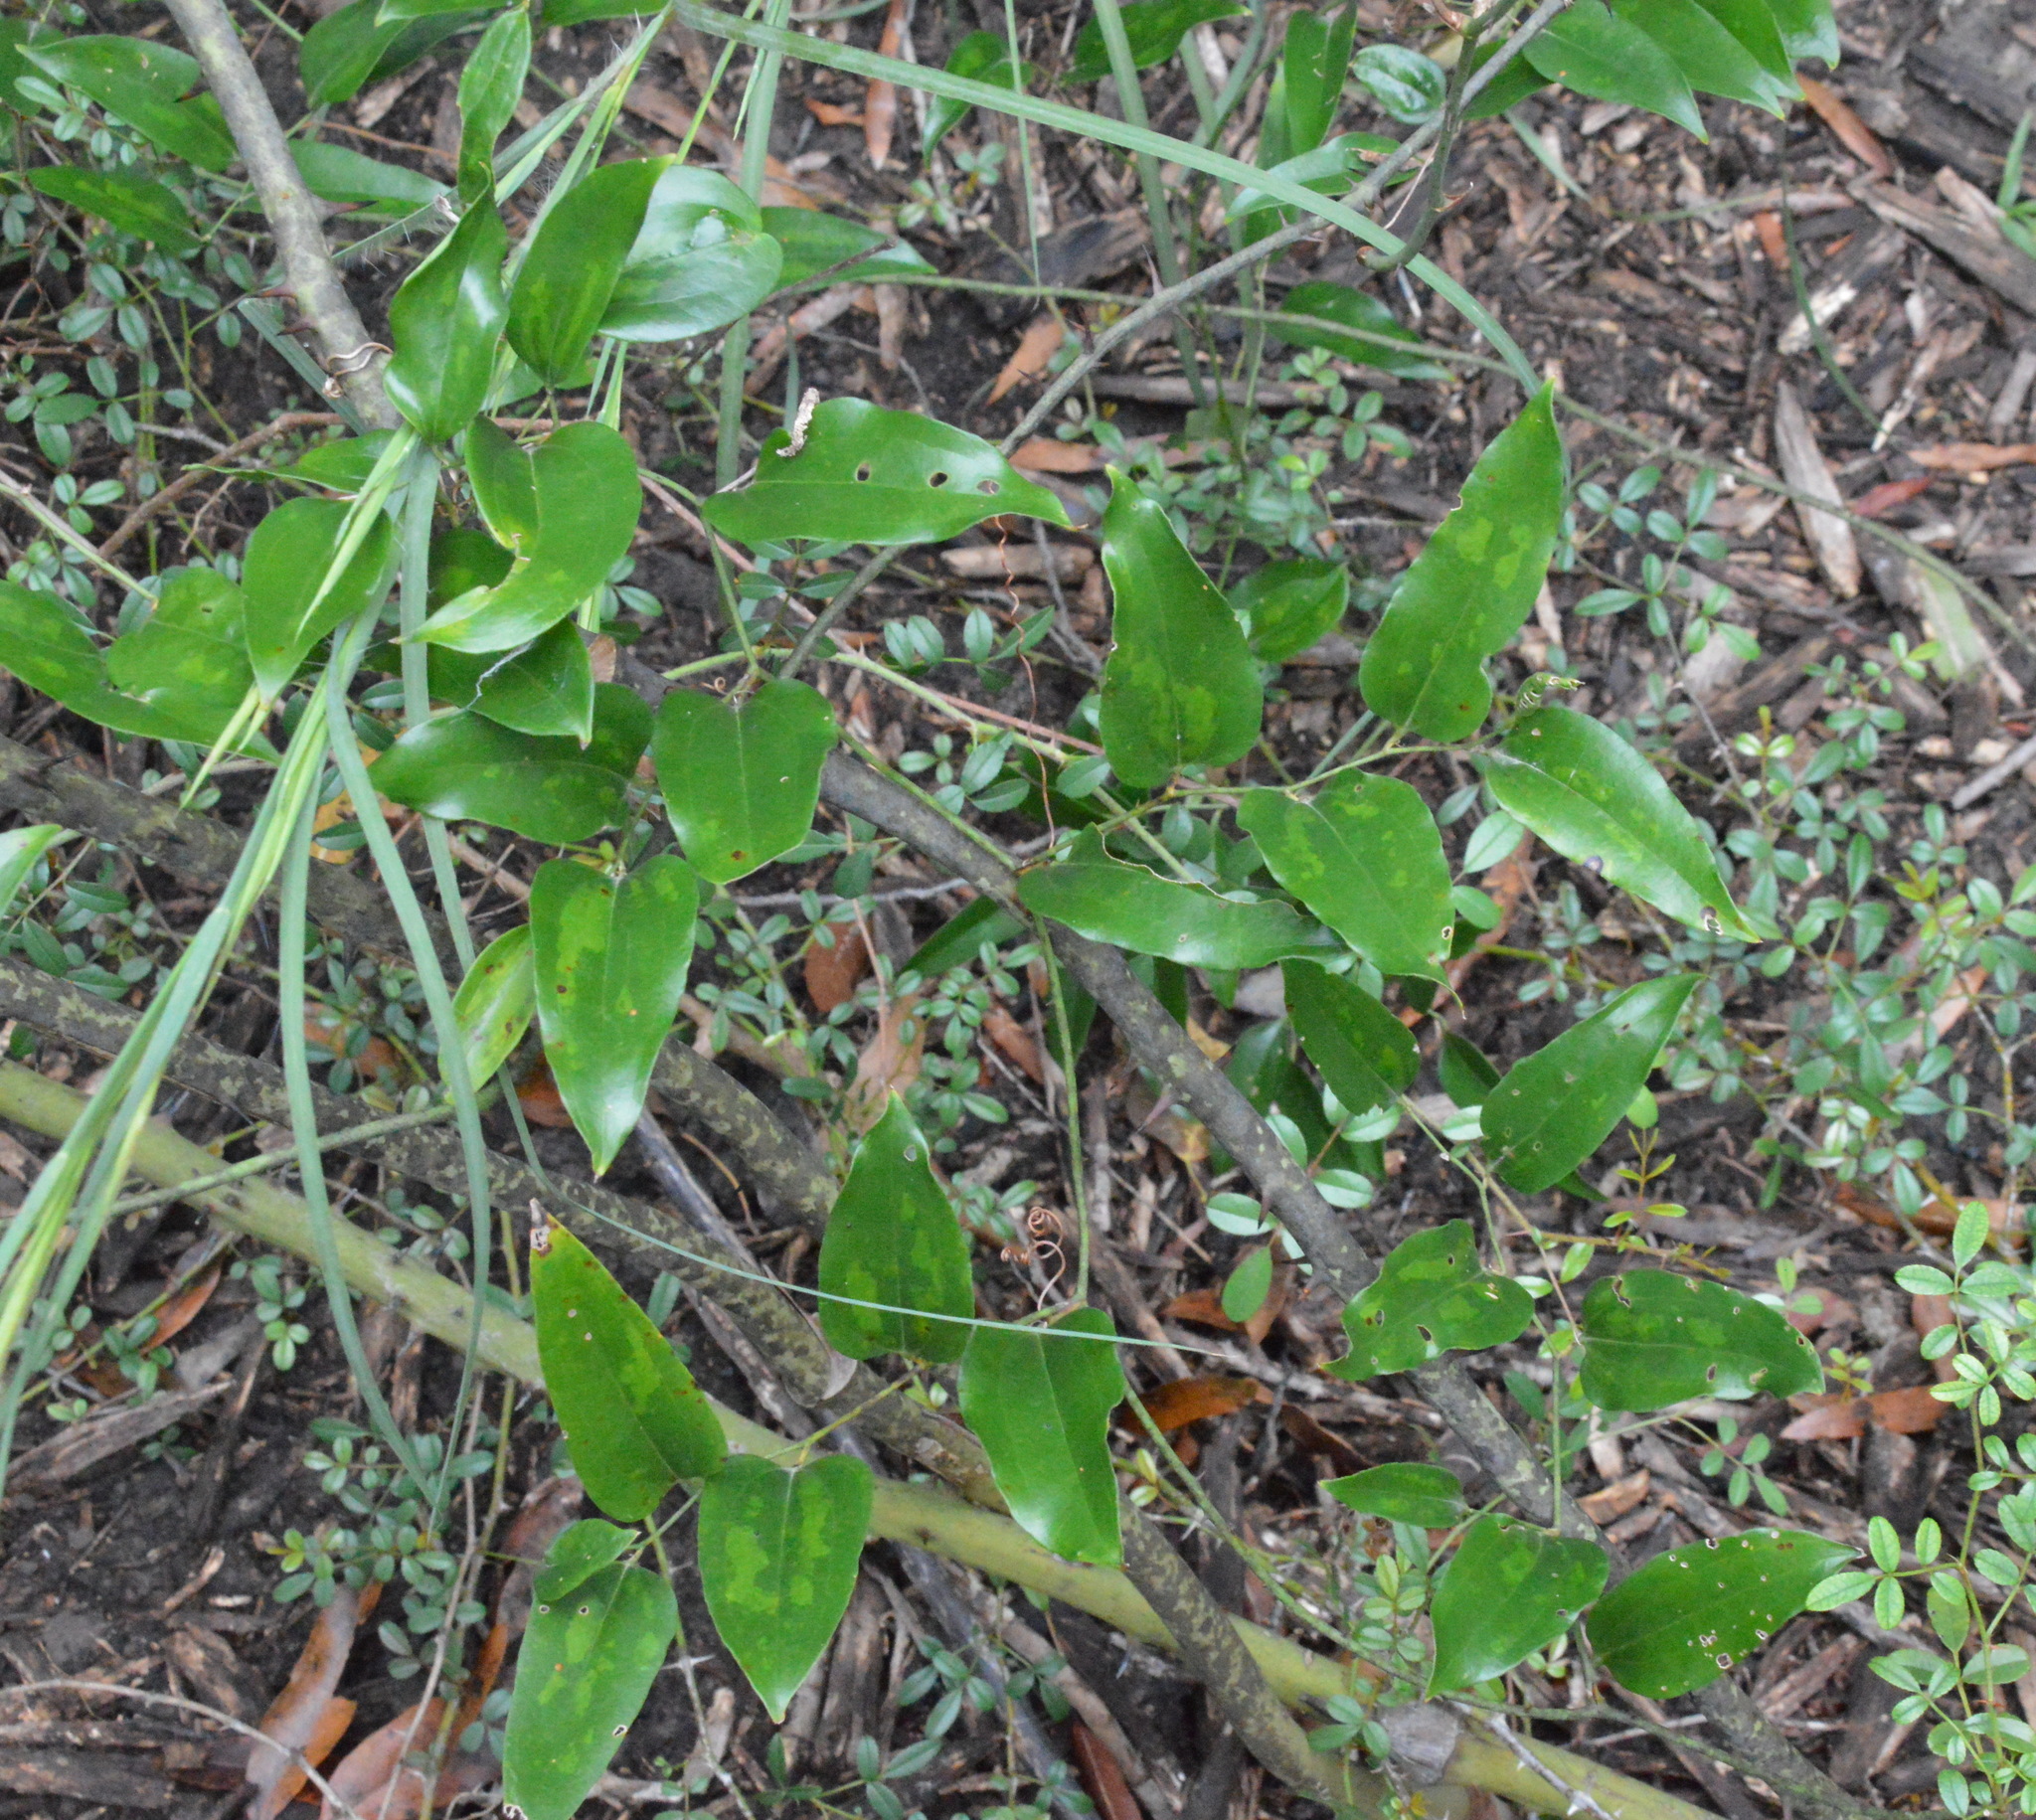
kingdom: Plantae
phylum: Tracheophyta
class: Liliopsida
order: Liliales
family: Smilacaceae
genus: Smilax
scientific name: Smilax maritima
